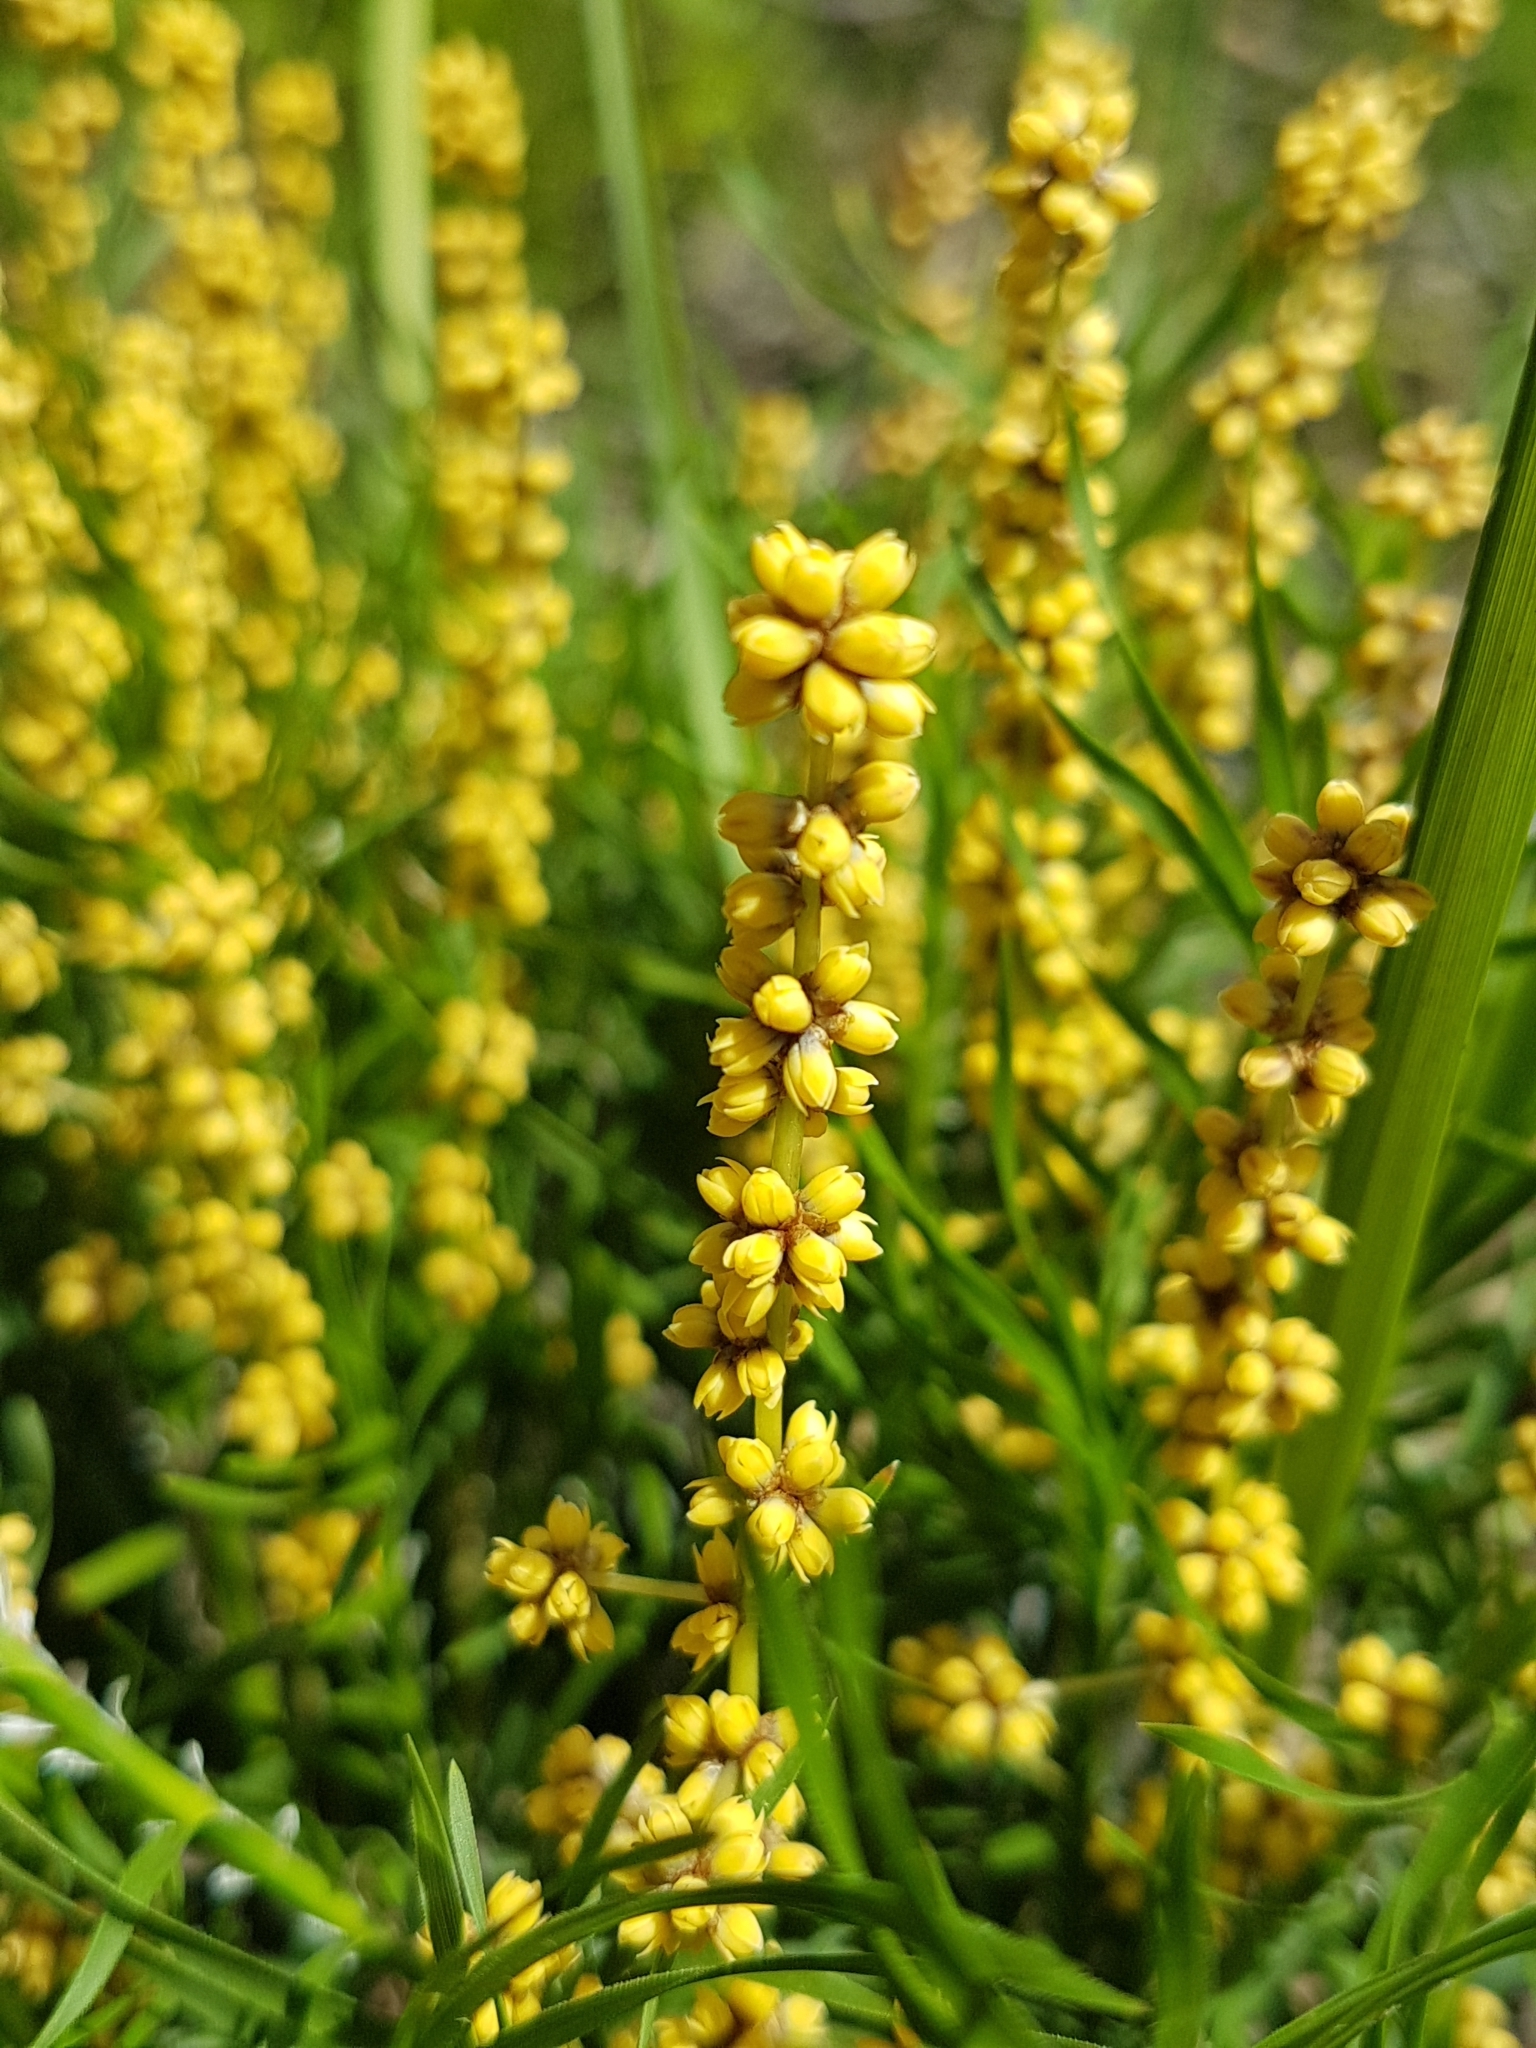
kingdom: Plantae
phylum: Tracheophyta
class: Liliopsida
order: Asparagales
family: Asparagaceae
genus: Lomandra
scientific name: Lomandra obliqua
